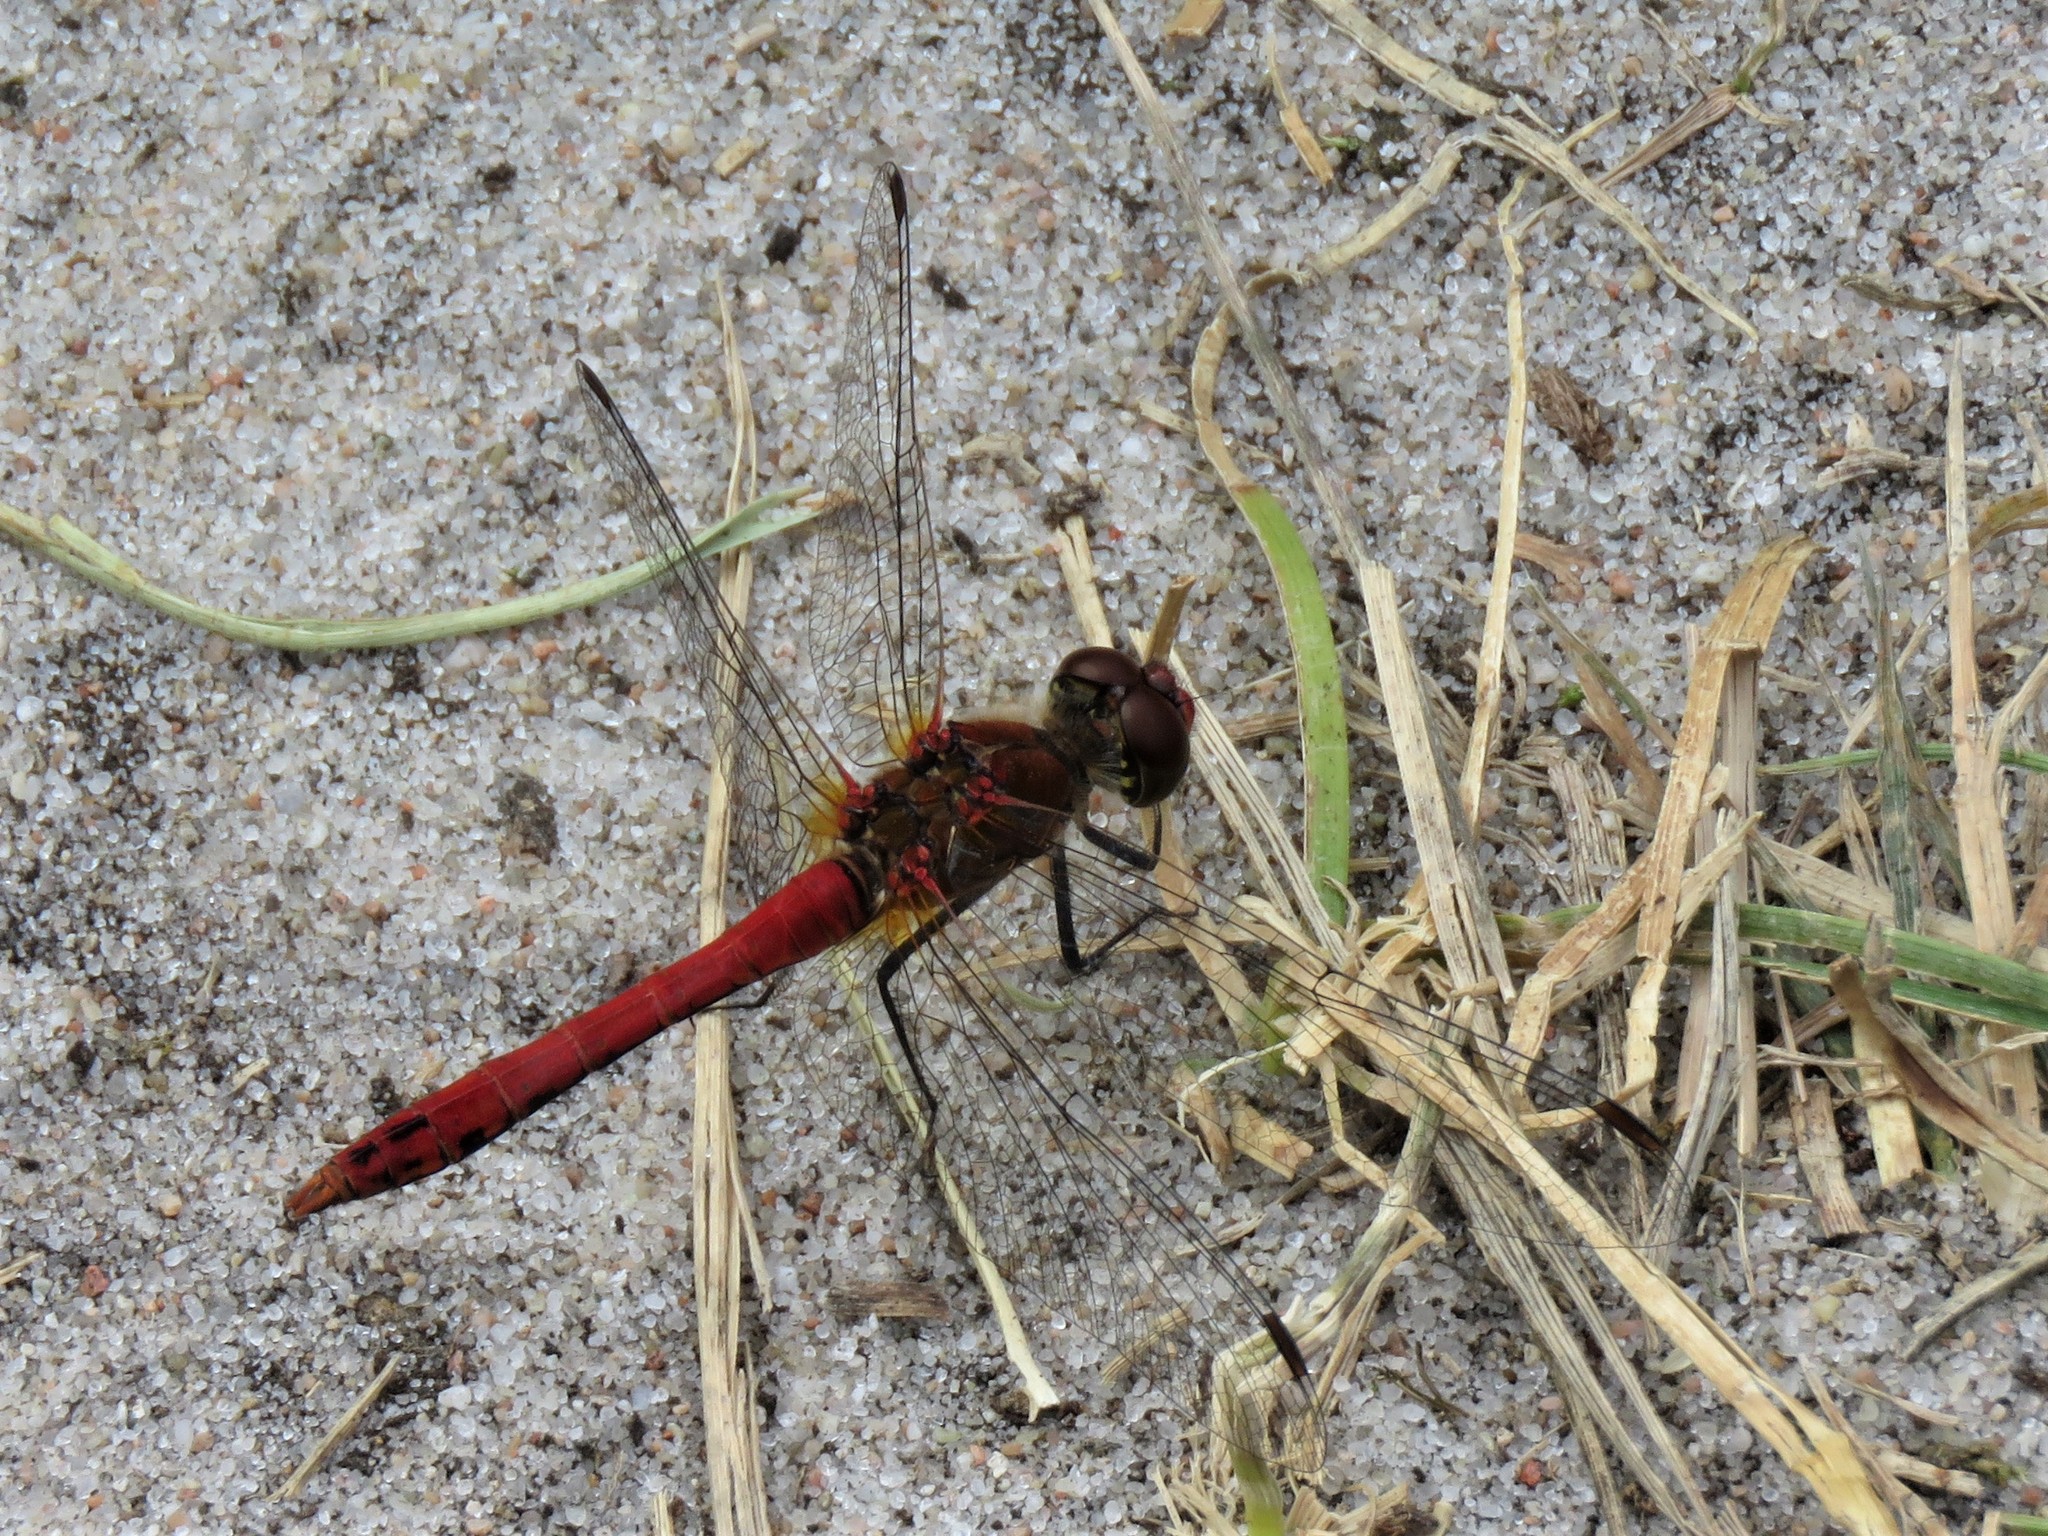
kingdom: Animalia
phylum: Arthropoda
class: Insecta
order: Odonata
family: Libellulidae
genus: Sympetrum
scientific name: Sympetrum sanguineum
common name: Ruddy darter
